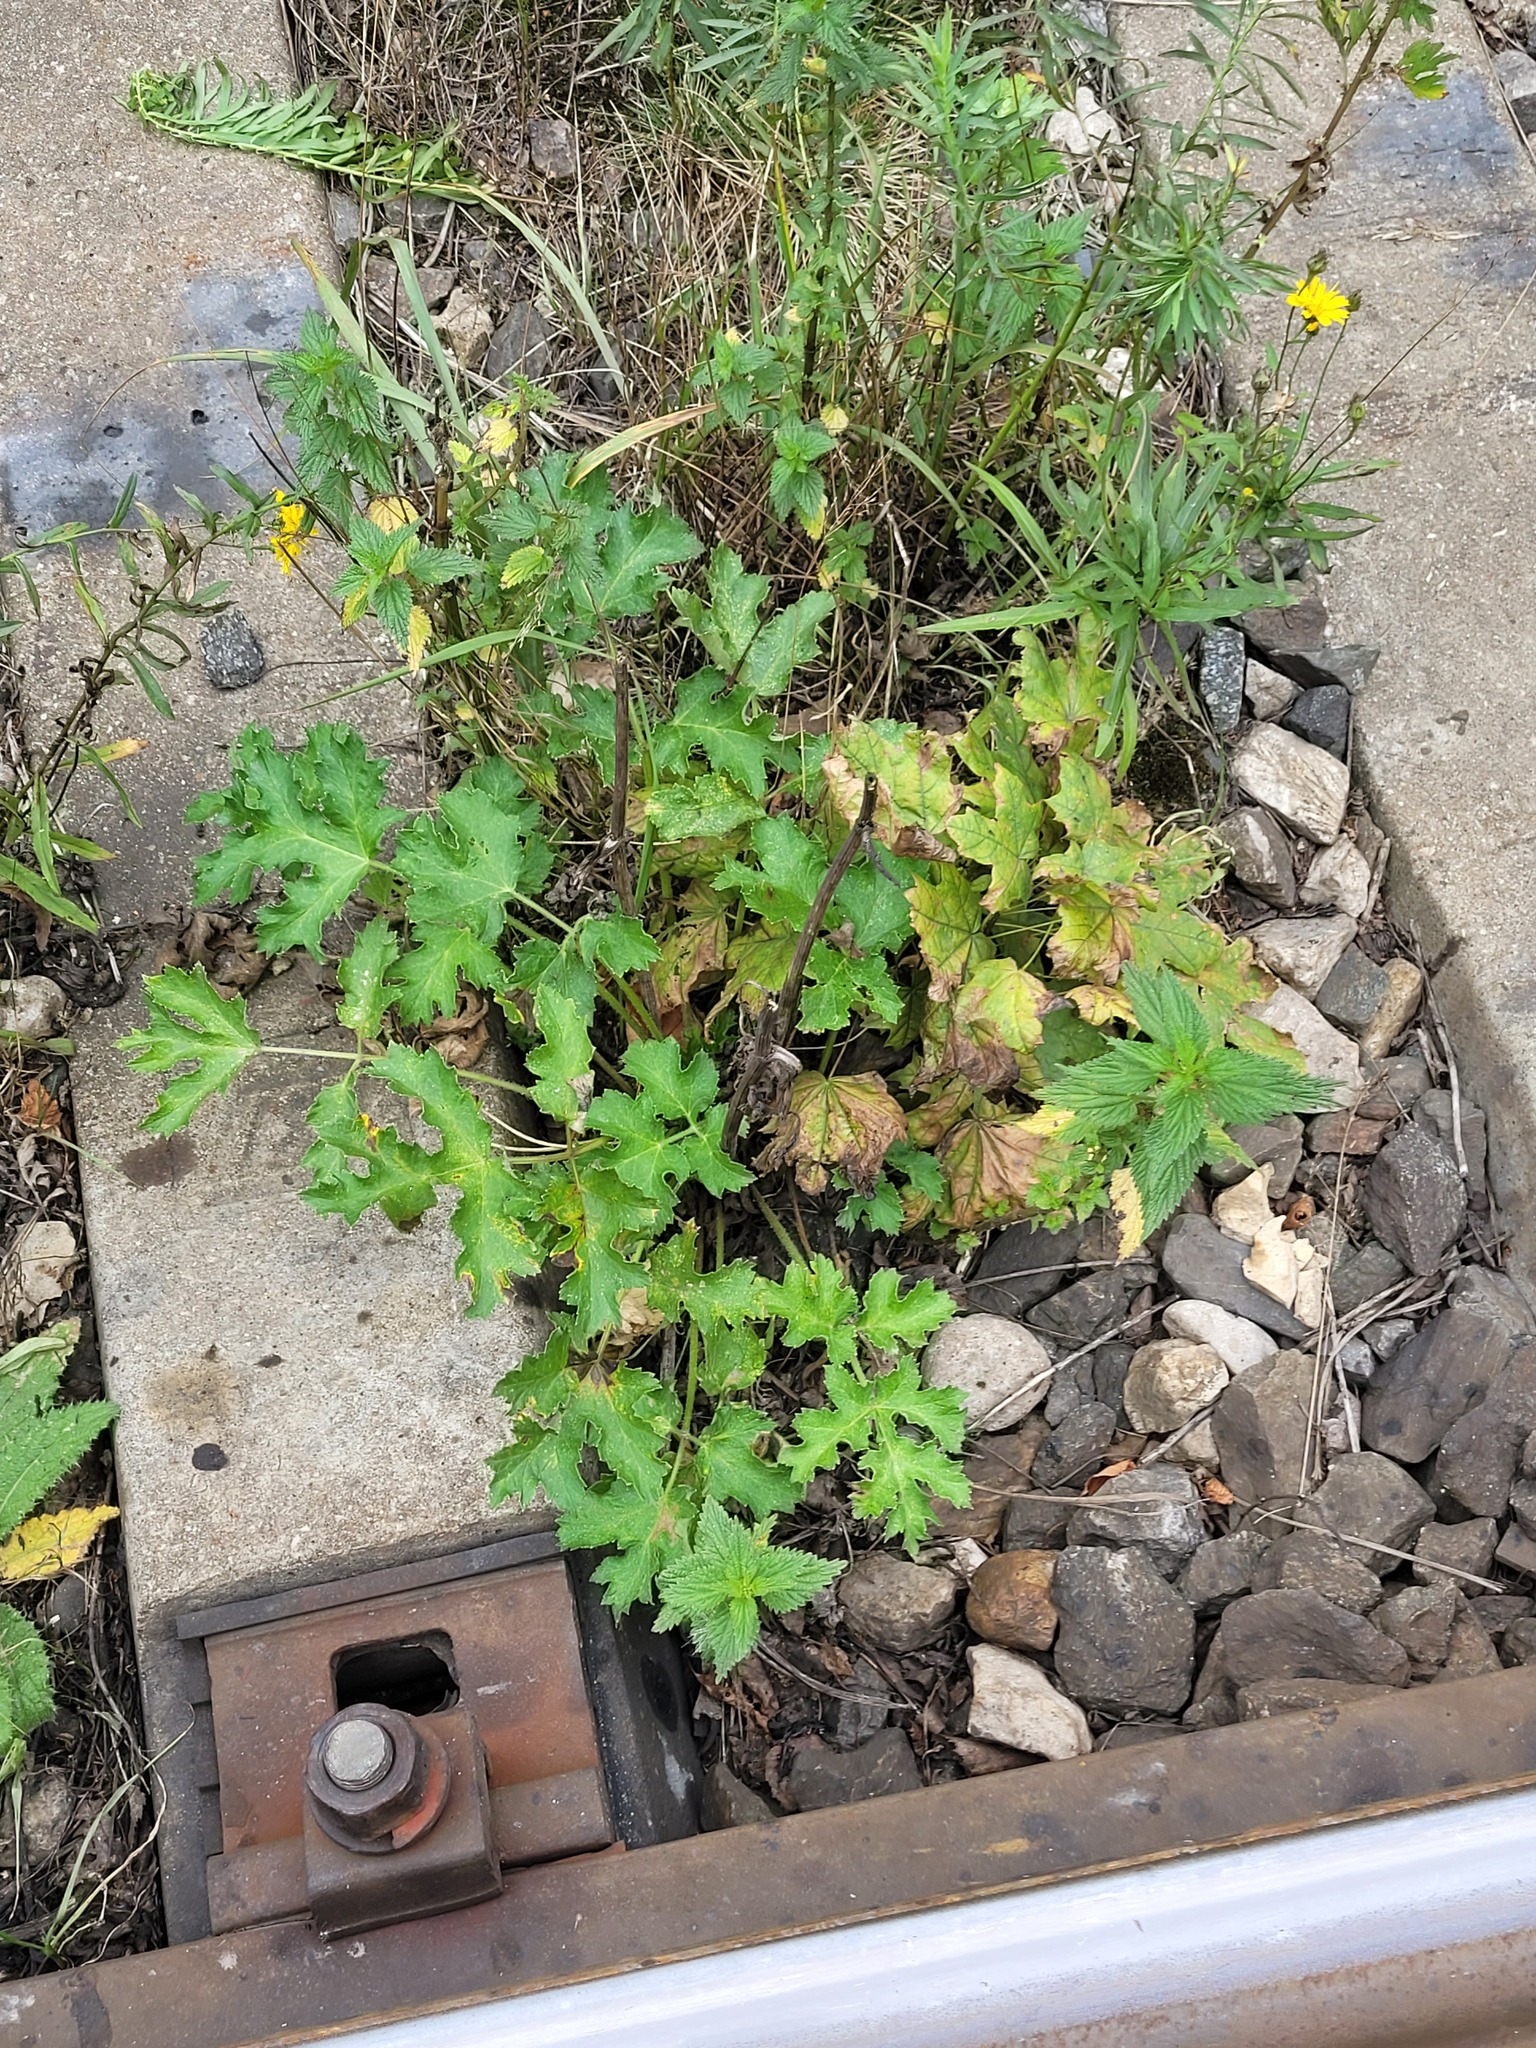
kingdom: Plantae
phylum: Tracheophyta
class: Magnoliopsida
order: Apiales
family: Apiaceae
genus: Heracleum
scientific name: Heracleum sphondylium
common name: Hogweed
